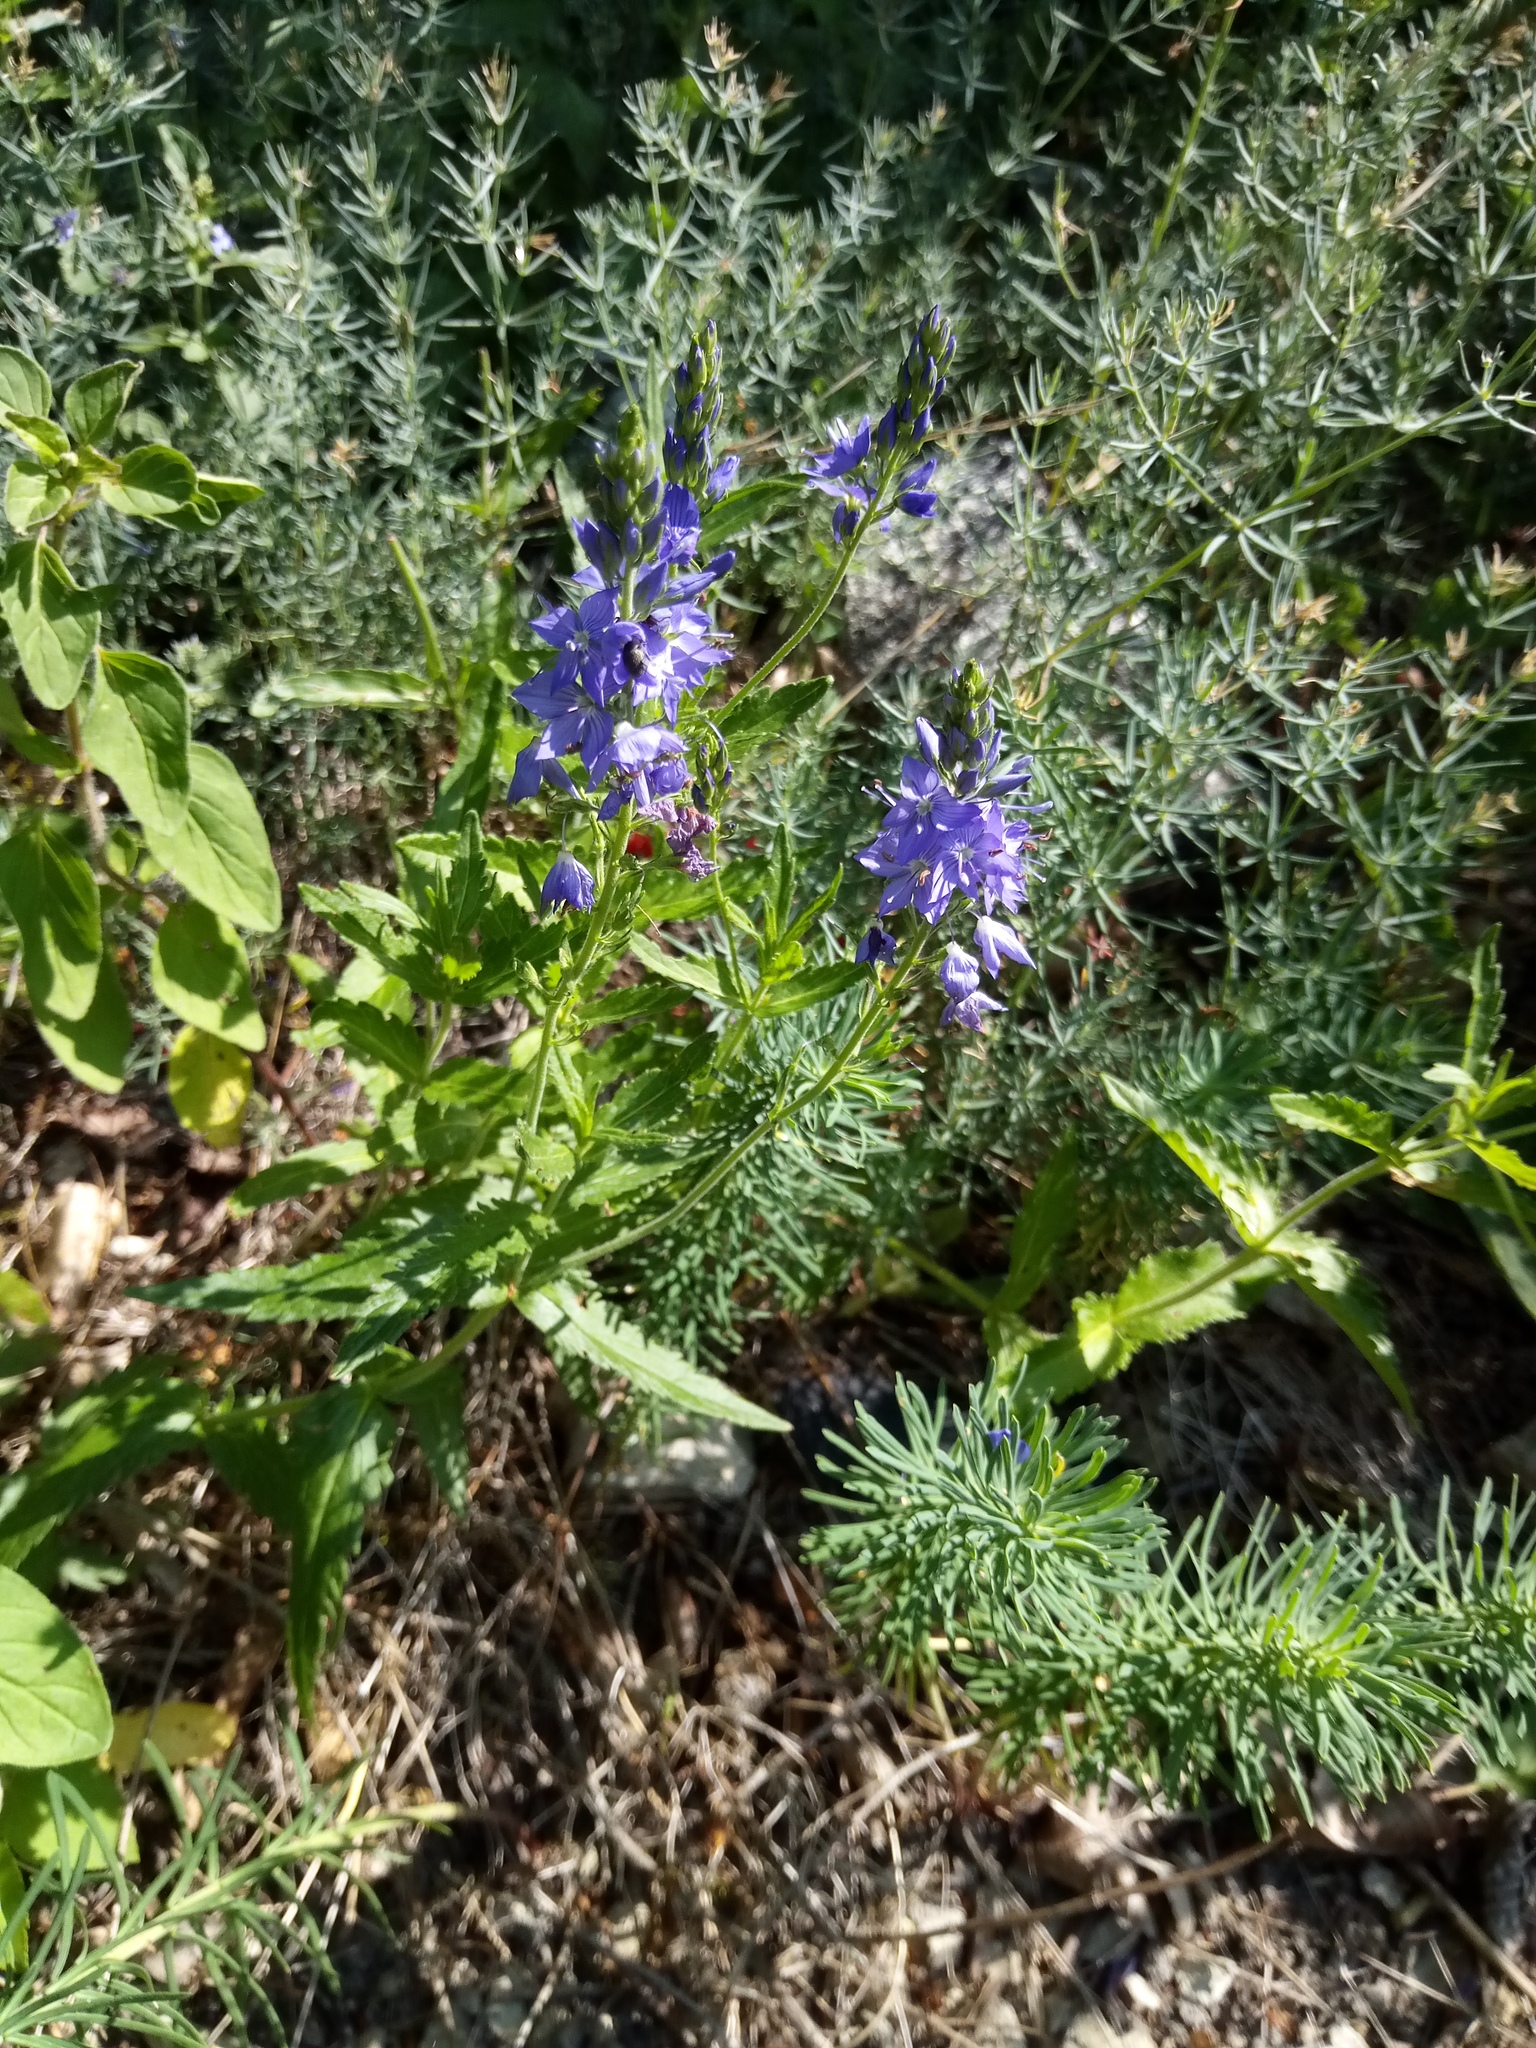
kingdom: Plantae
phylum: Tracheophyta
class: Magnoliopsida
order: Lamiales
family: Plantaginaceae
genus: Veronica
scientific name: Veronica teucrium
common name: Large speedwell
